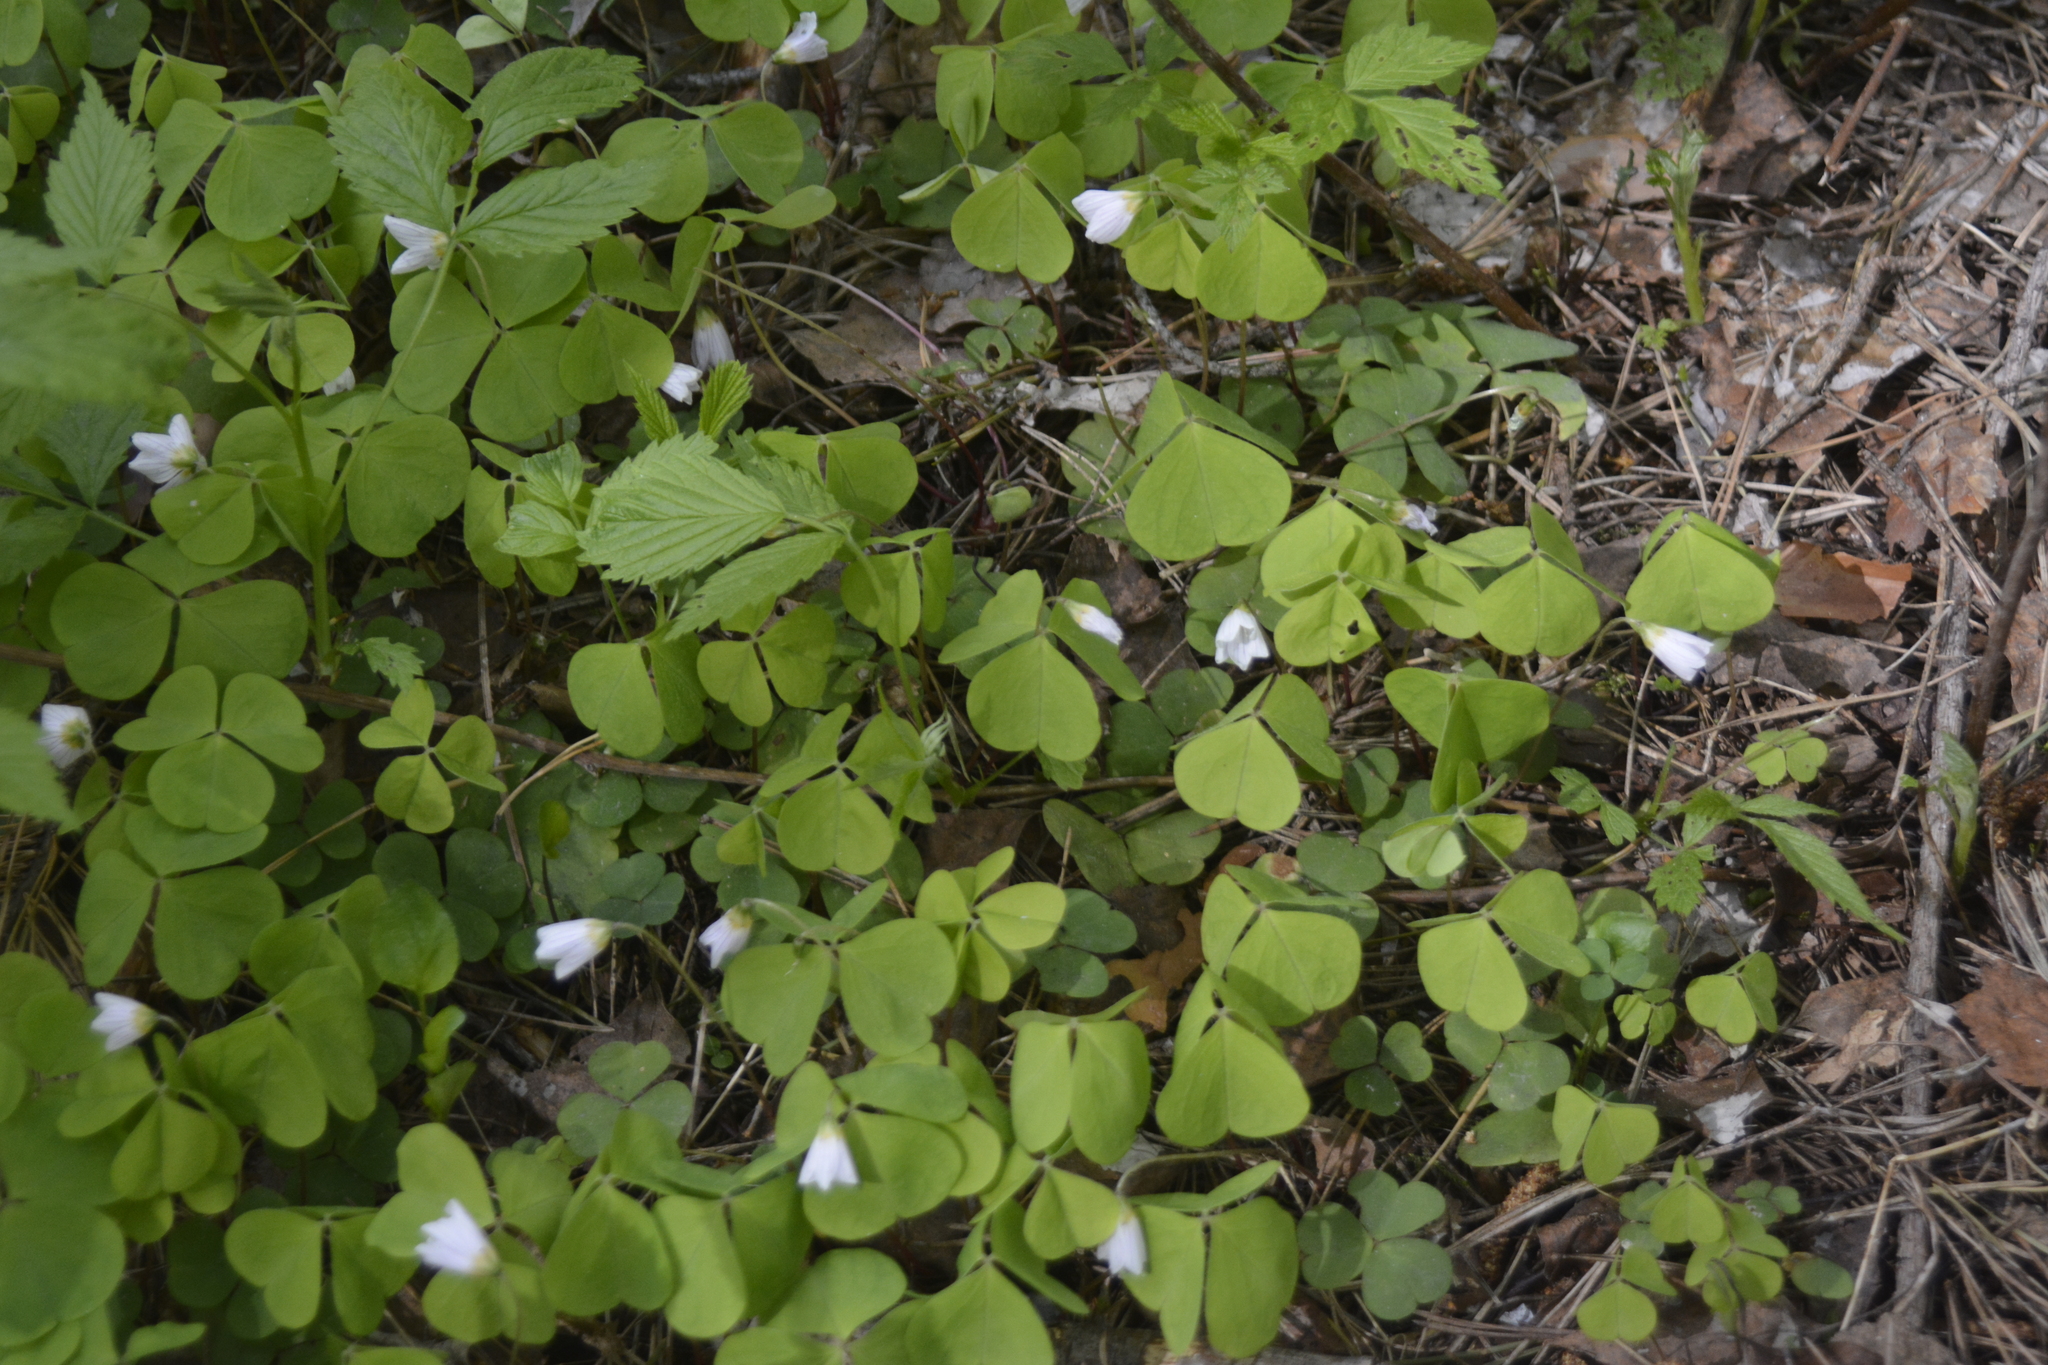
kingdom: Plantae
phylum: Tracheophyta
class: Magnoliopsida
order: Oxalidales
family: Oxalidaceae
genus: Oxalis
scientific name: Oxalis acetosella
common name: Wood-sorrel
